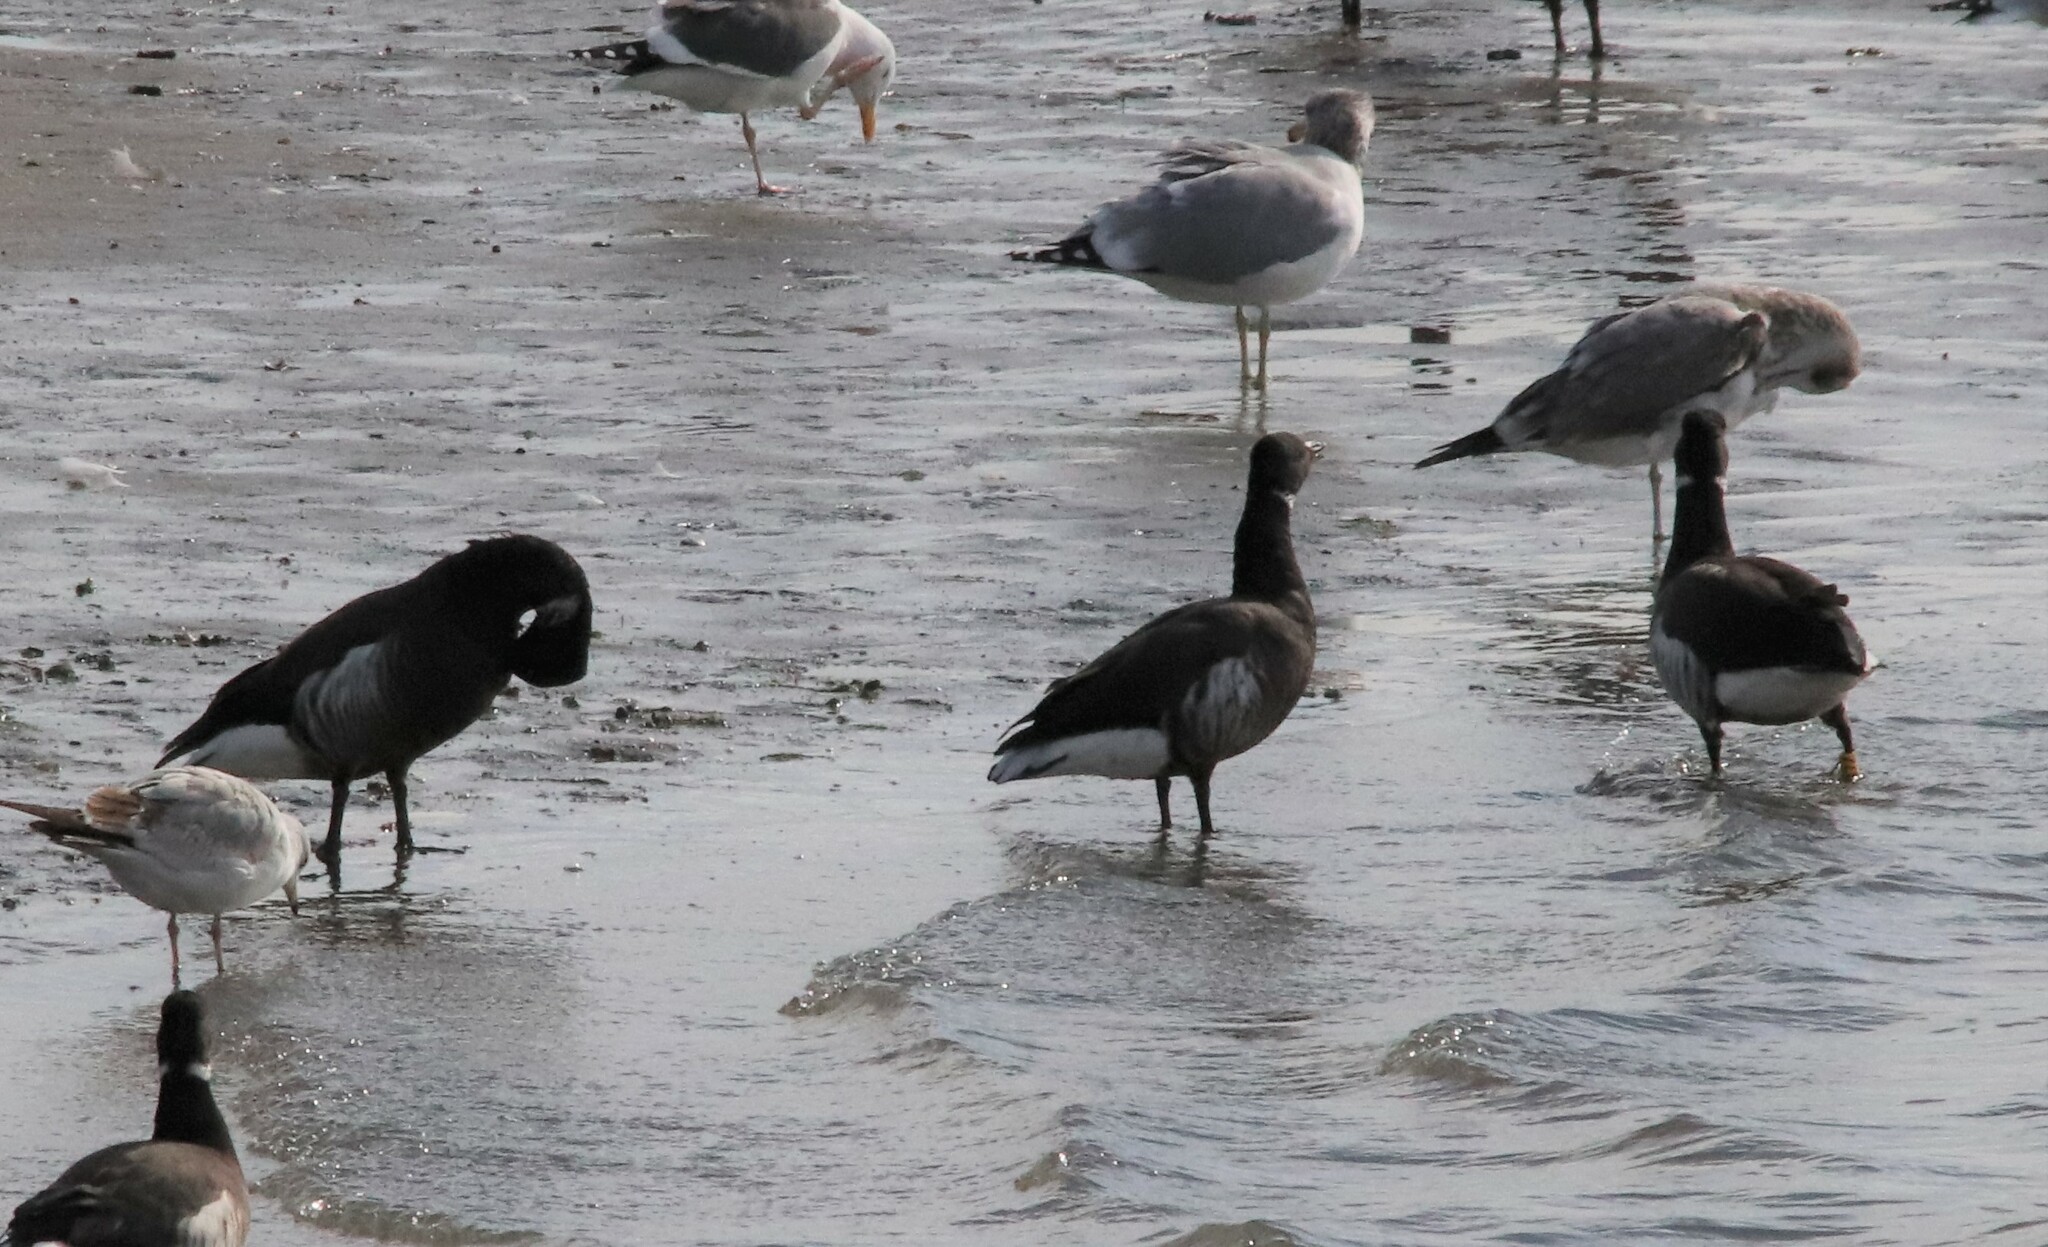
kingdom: Animalia
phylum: Chordata
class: Aves
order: Anseriformes
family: Anatidae
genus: Branta
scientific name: Branta bernicla
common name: Brant goose
